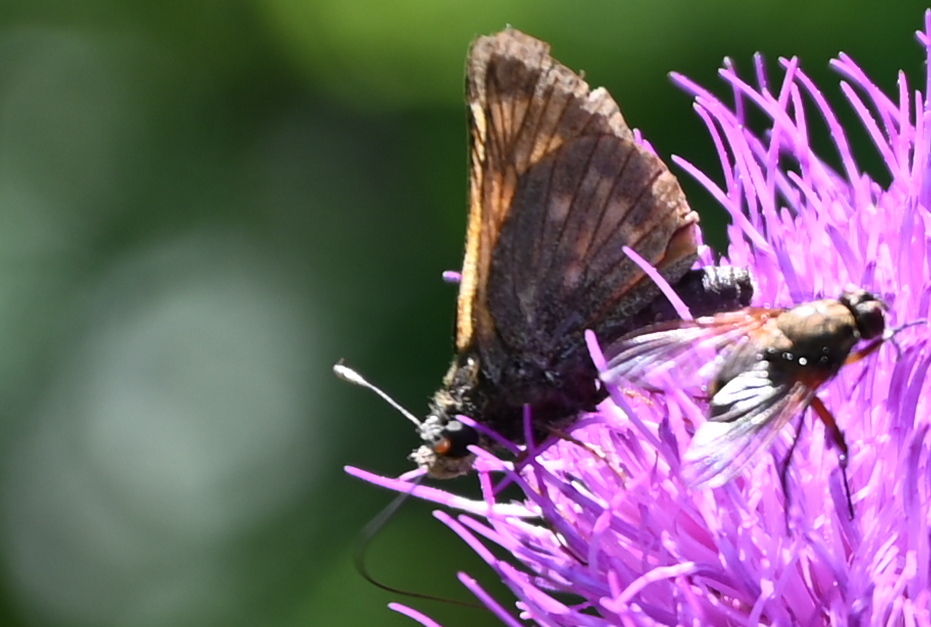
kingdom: Animalia
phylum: Arthropoda
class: Insecta
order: Lepidoptera
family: Hesperiidae
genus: Ochlodes
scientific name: Ochlodes venata
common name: Large skipper
